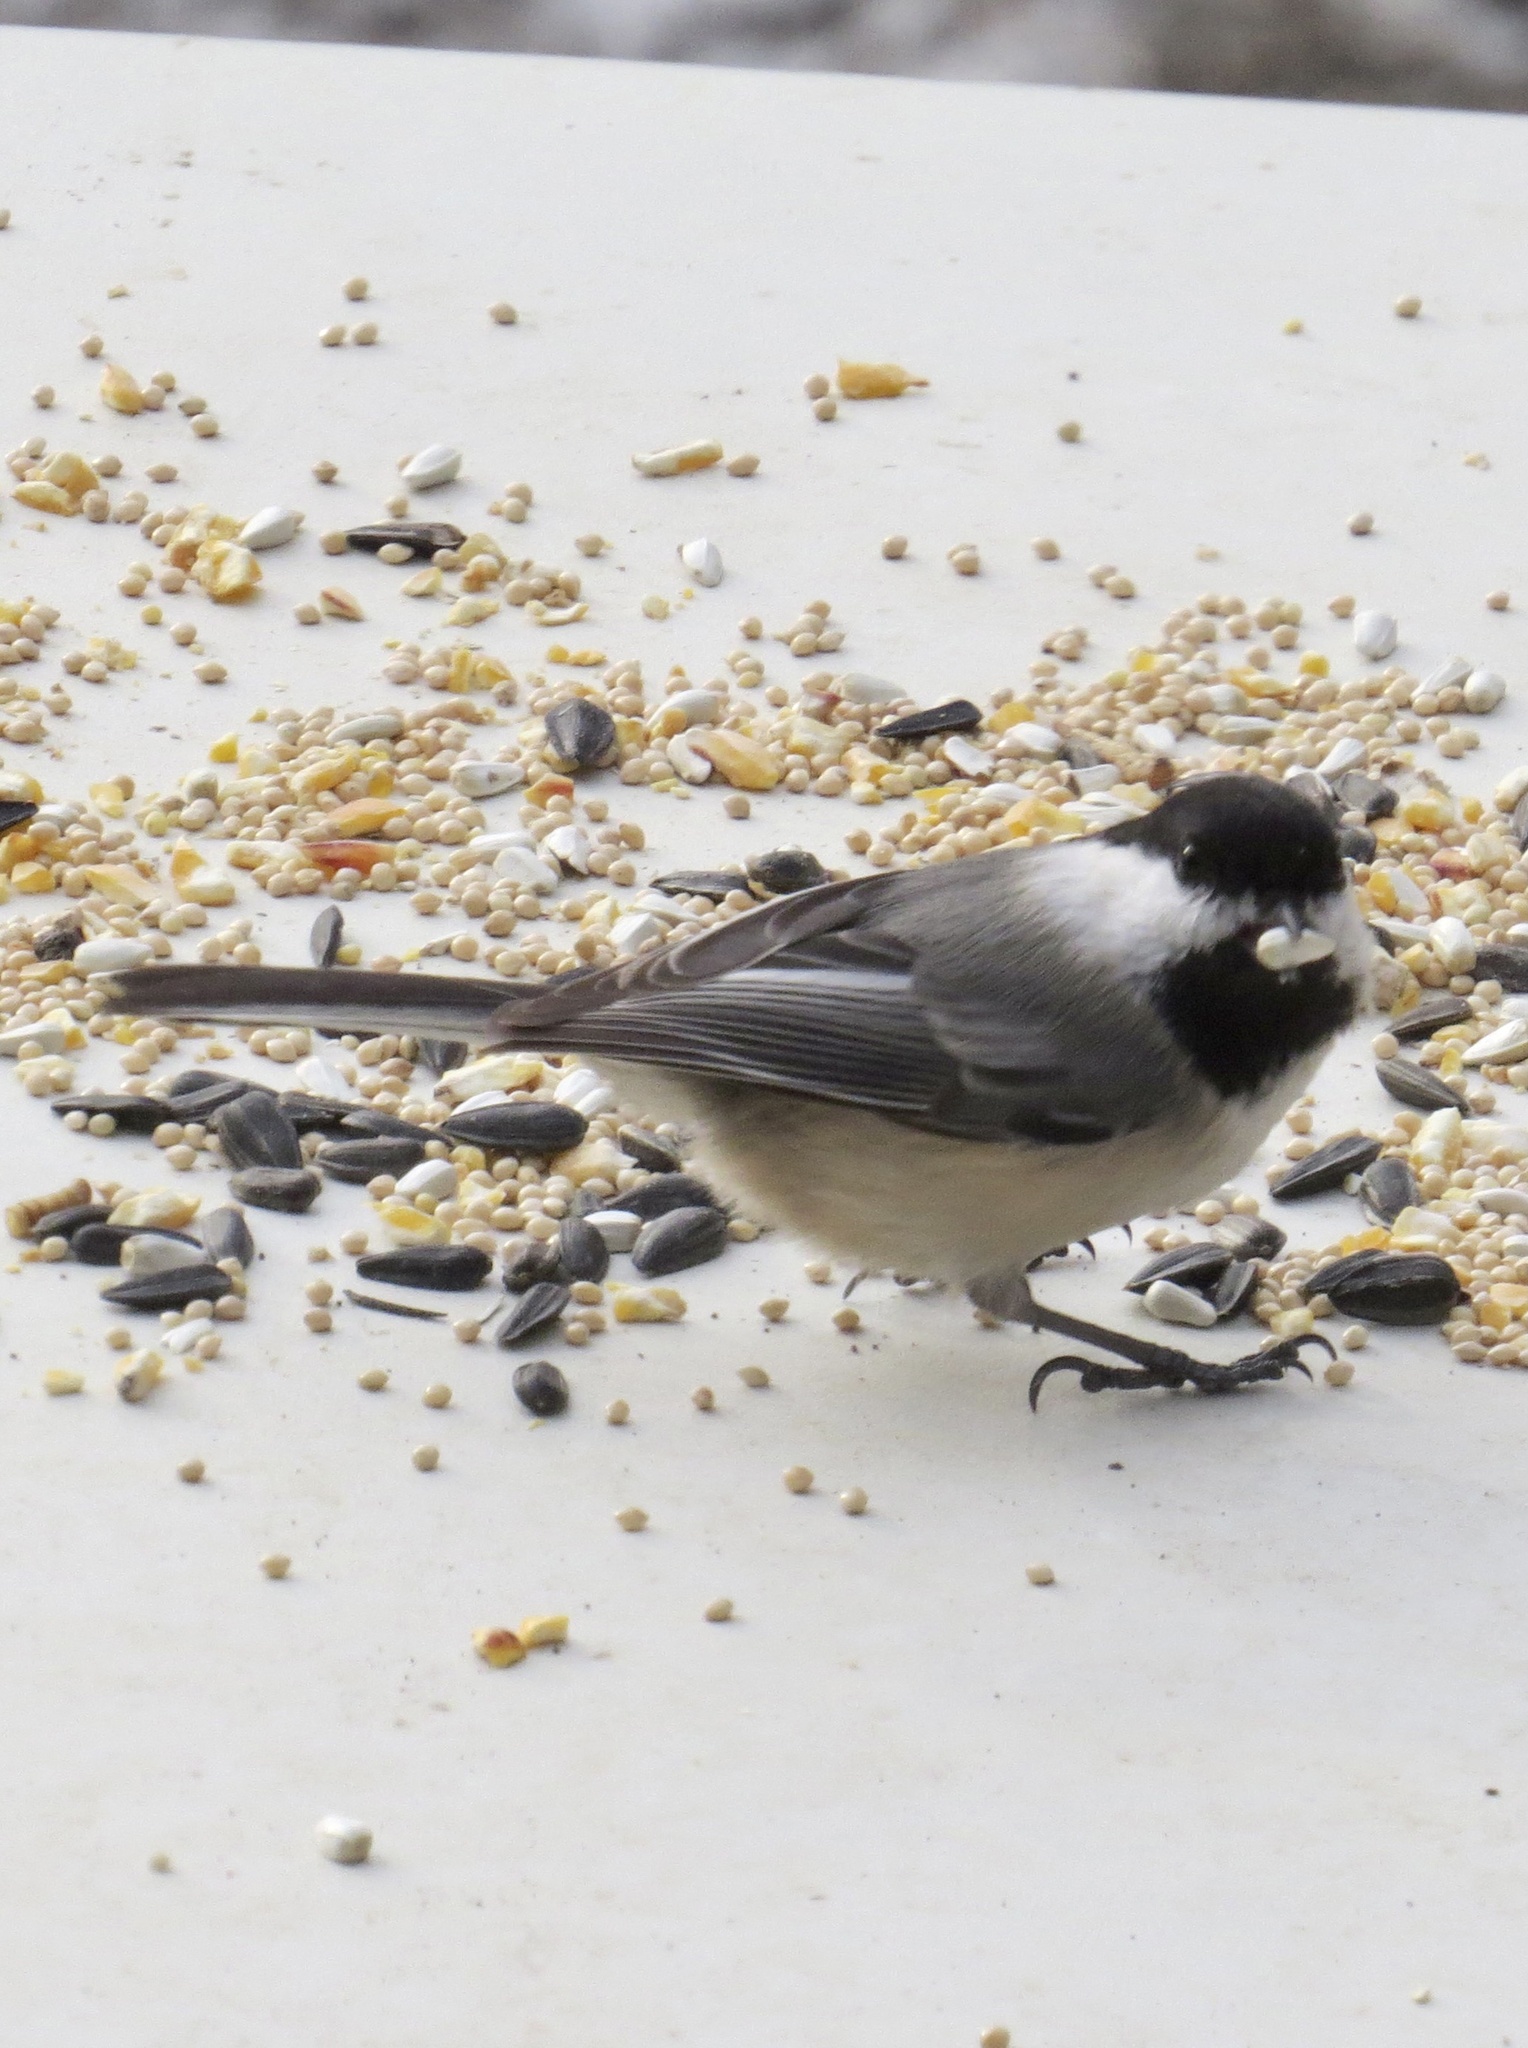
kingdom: Animalia
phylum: Chordata
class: Aves
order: Passeriformes
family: Paridae
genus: Poecile
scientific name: Poecile atricapillus
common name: Black-capped chickadee
